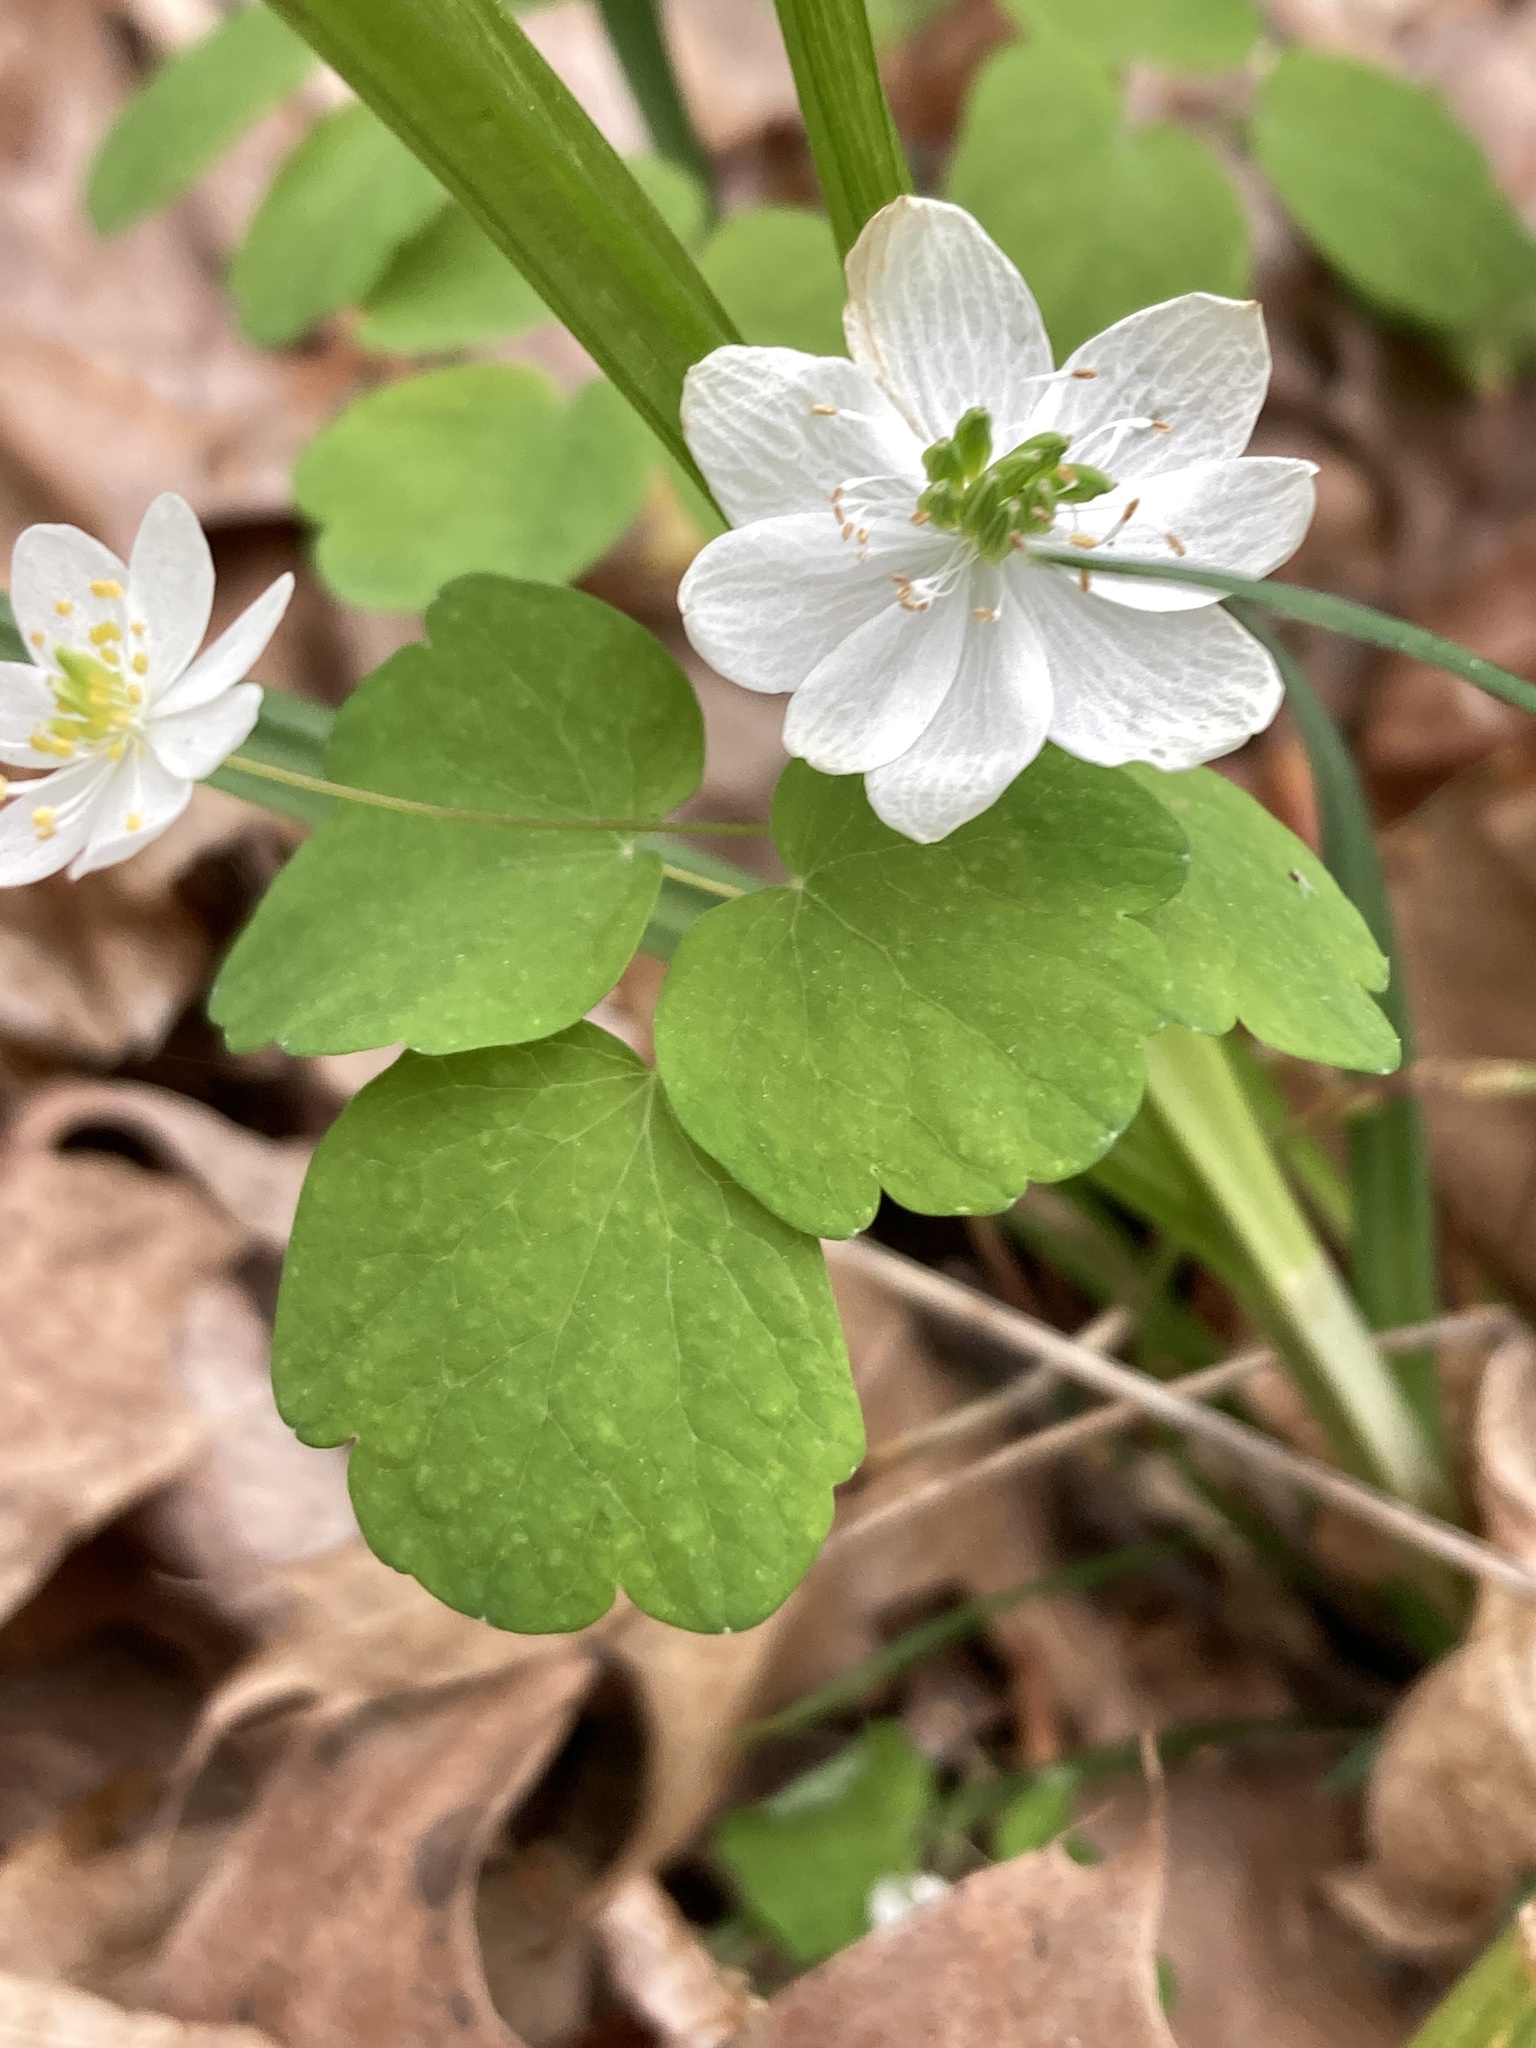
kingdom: Plantae
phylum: Tracheophyta
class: Magnoliopsida
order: Ranunculales
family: Ranunculaceae
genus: Thalictrum
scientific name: Thalictrum thalictroides
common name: Rue-anemone
